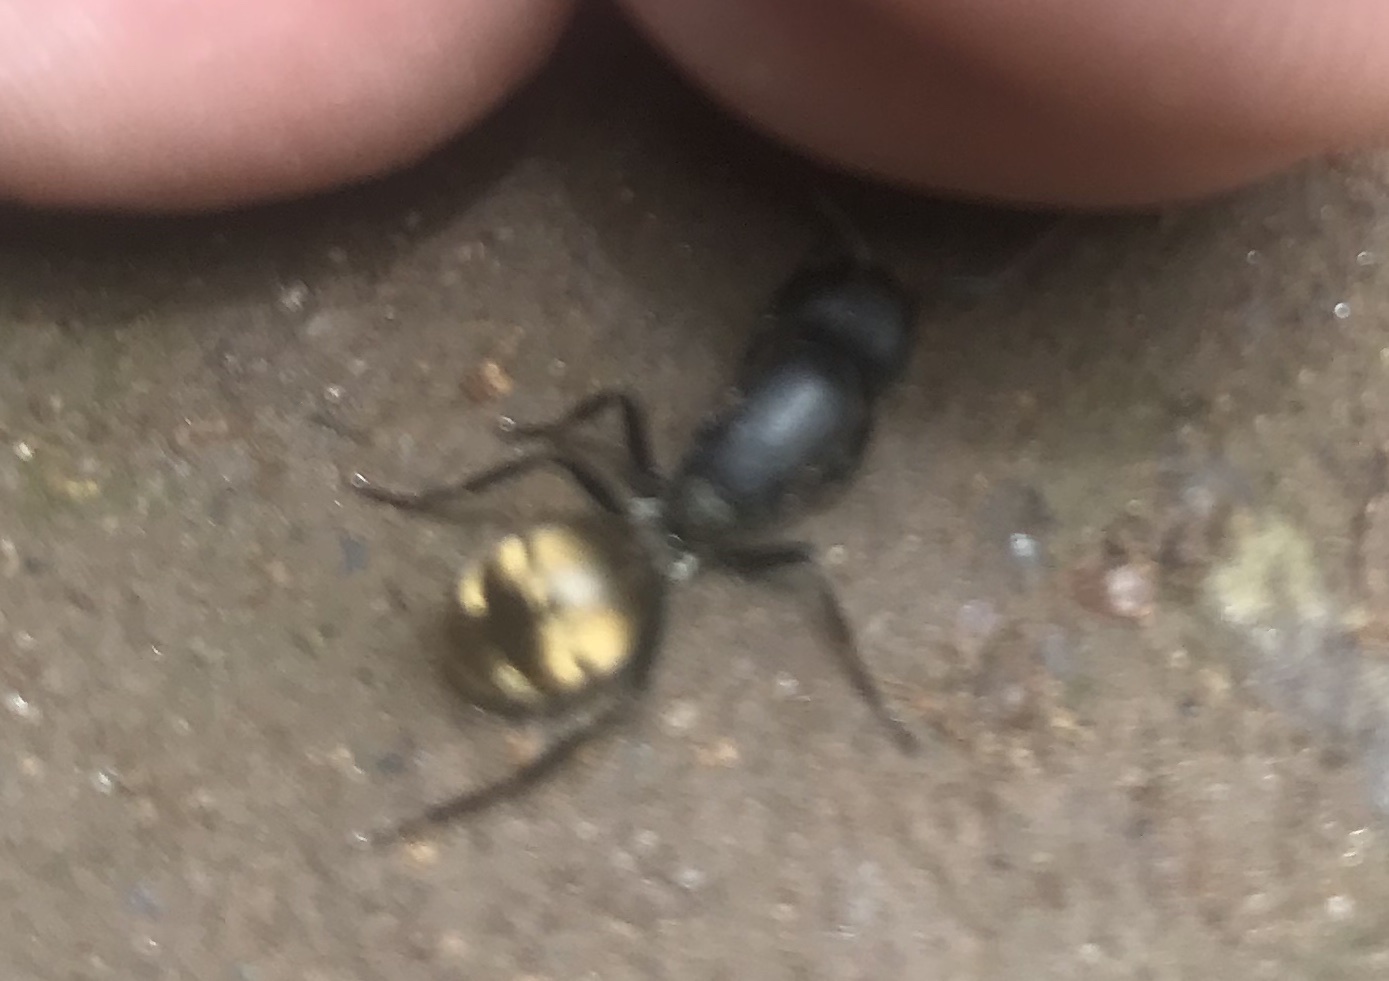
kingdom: Animalia
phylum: Arthropoda
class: Insecta
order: Hymenoptera
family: Formicidae
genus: Camponotus
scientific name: Camponotus sericeus
